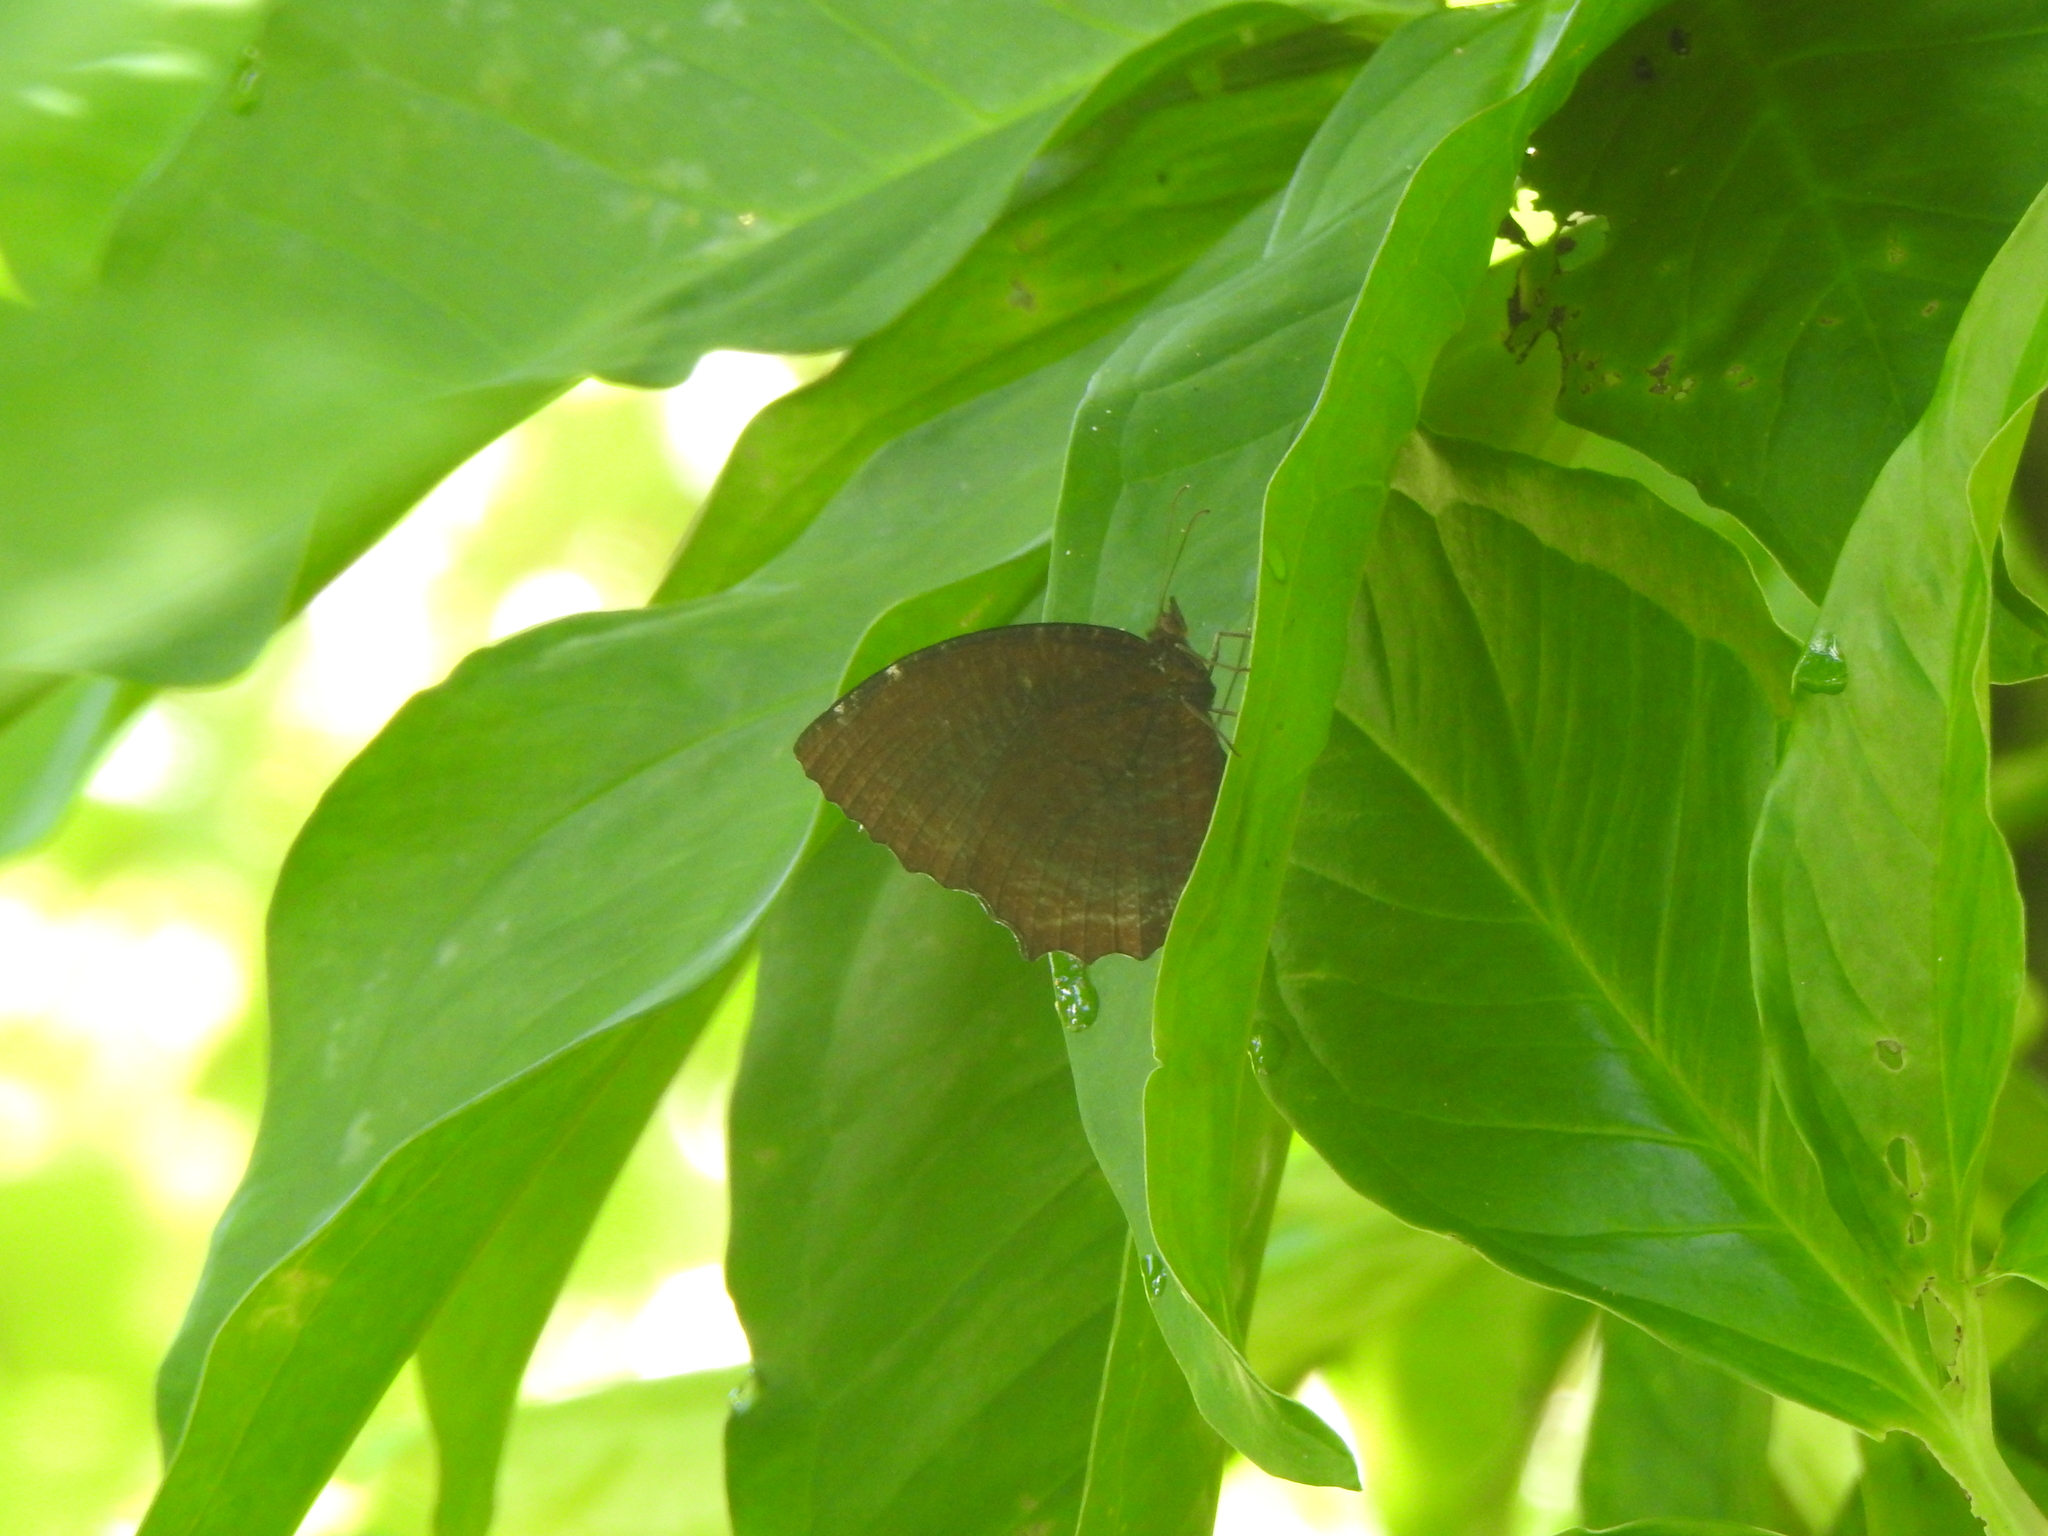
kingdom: Animalia
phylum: Arthropoda
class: Insecta
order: Lepidoptera
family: Nymphalidae
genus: Elymnias
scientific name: Elymnias hypermnestra
